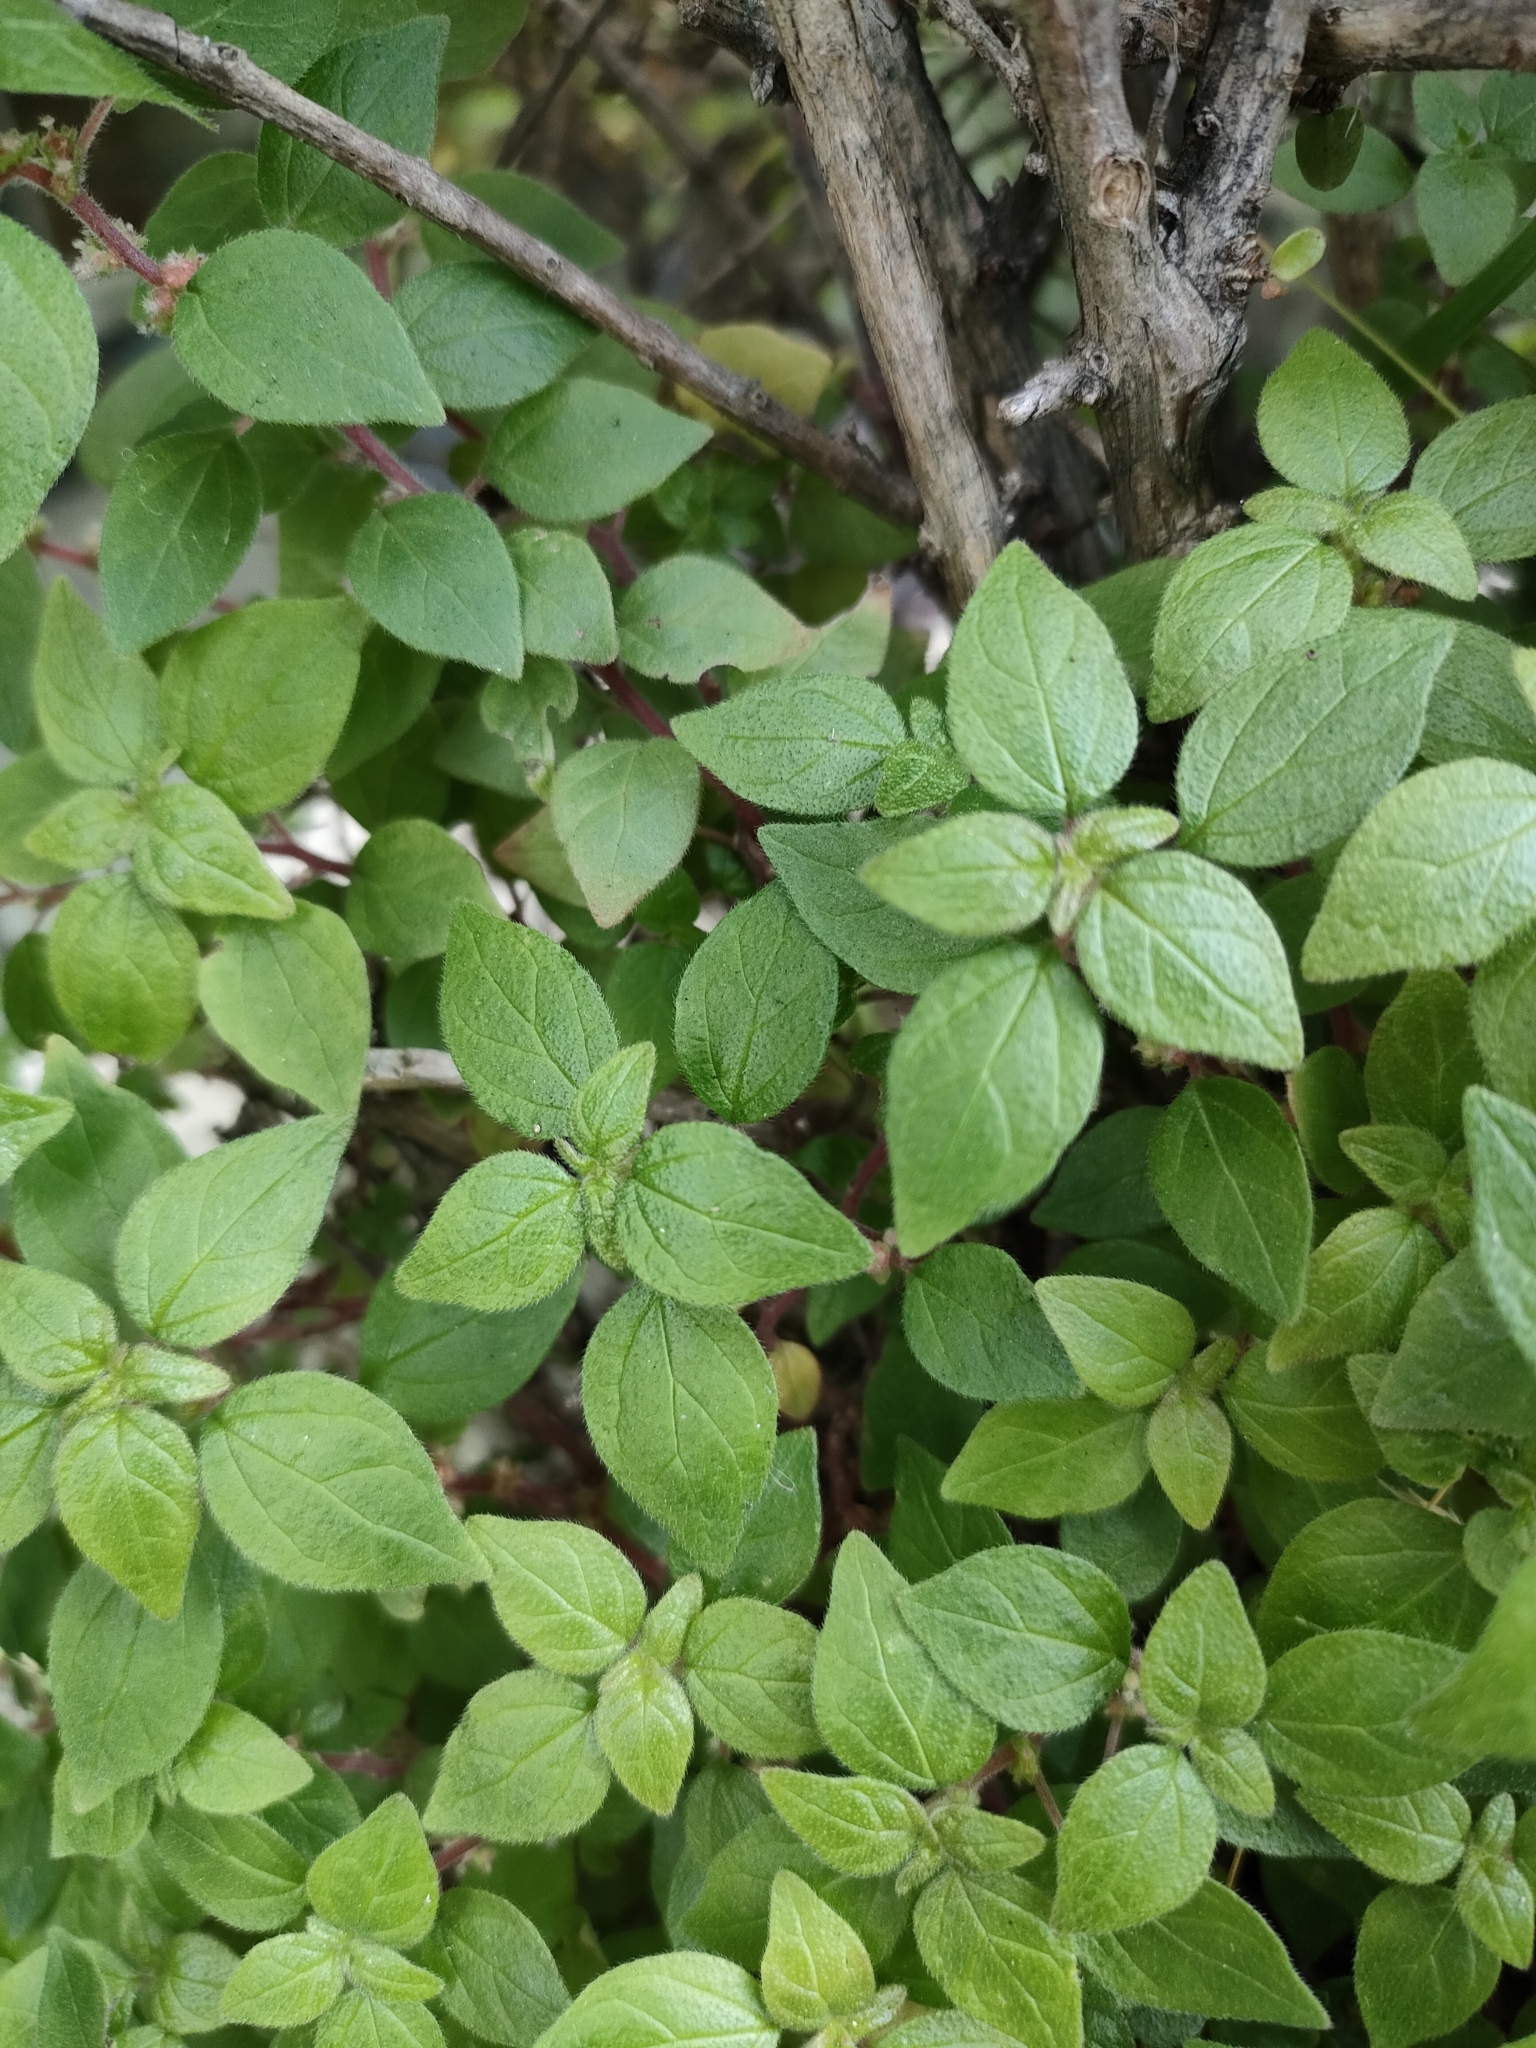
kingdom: Plantae
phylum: Tracheophyta
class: Magnoliopsida
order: Rosales
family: Urticaceae
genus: Parietaria
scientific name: Parietaria judaica
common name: Pellitory-of-the-wall
